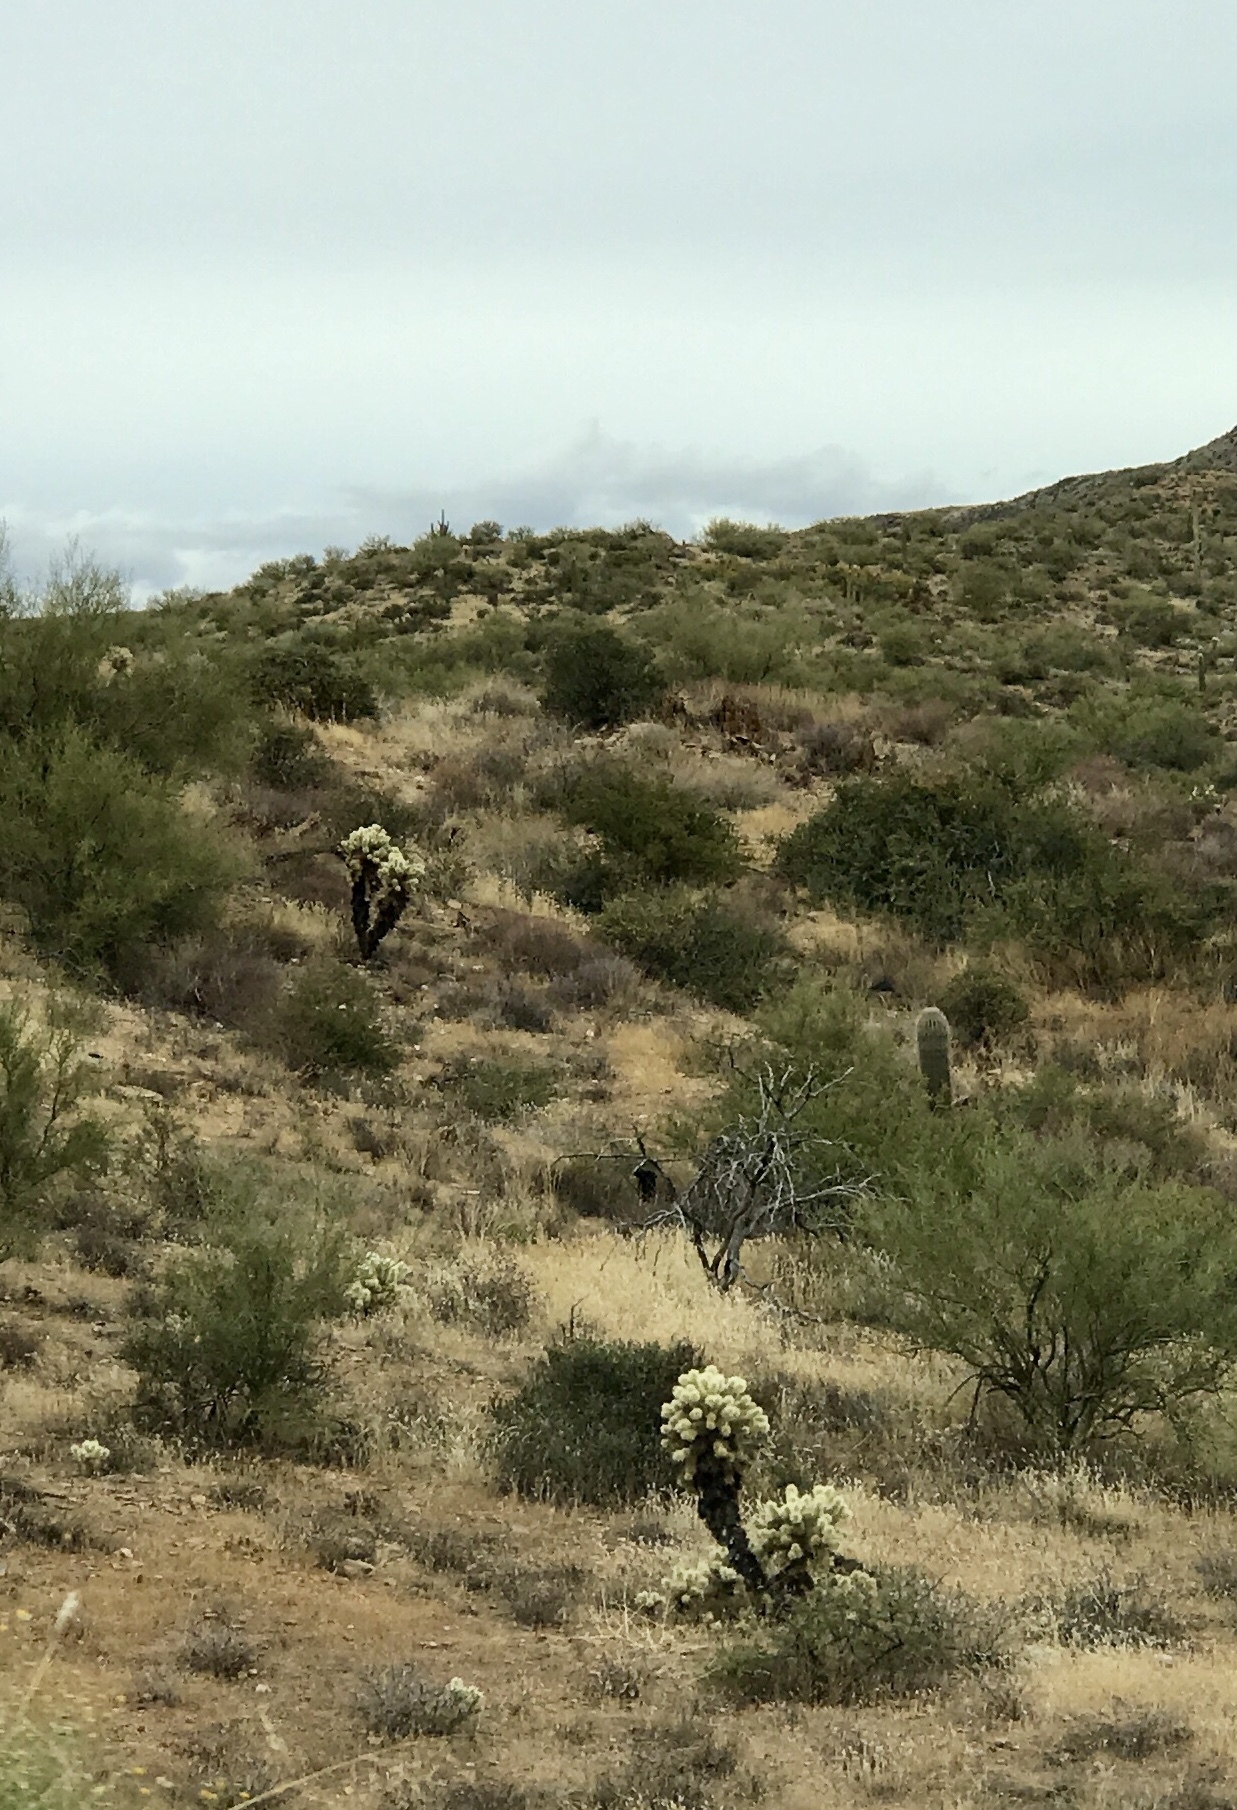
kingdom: Plantae
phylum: Tracheophyta
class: Magnoliopsida
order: Caryophyllales
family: Cactaceae
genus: Cylindropuntia
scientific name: Cylindropuntia fosbergii
